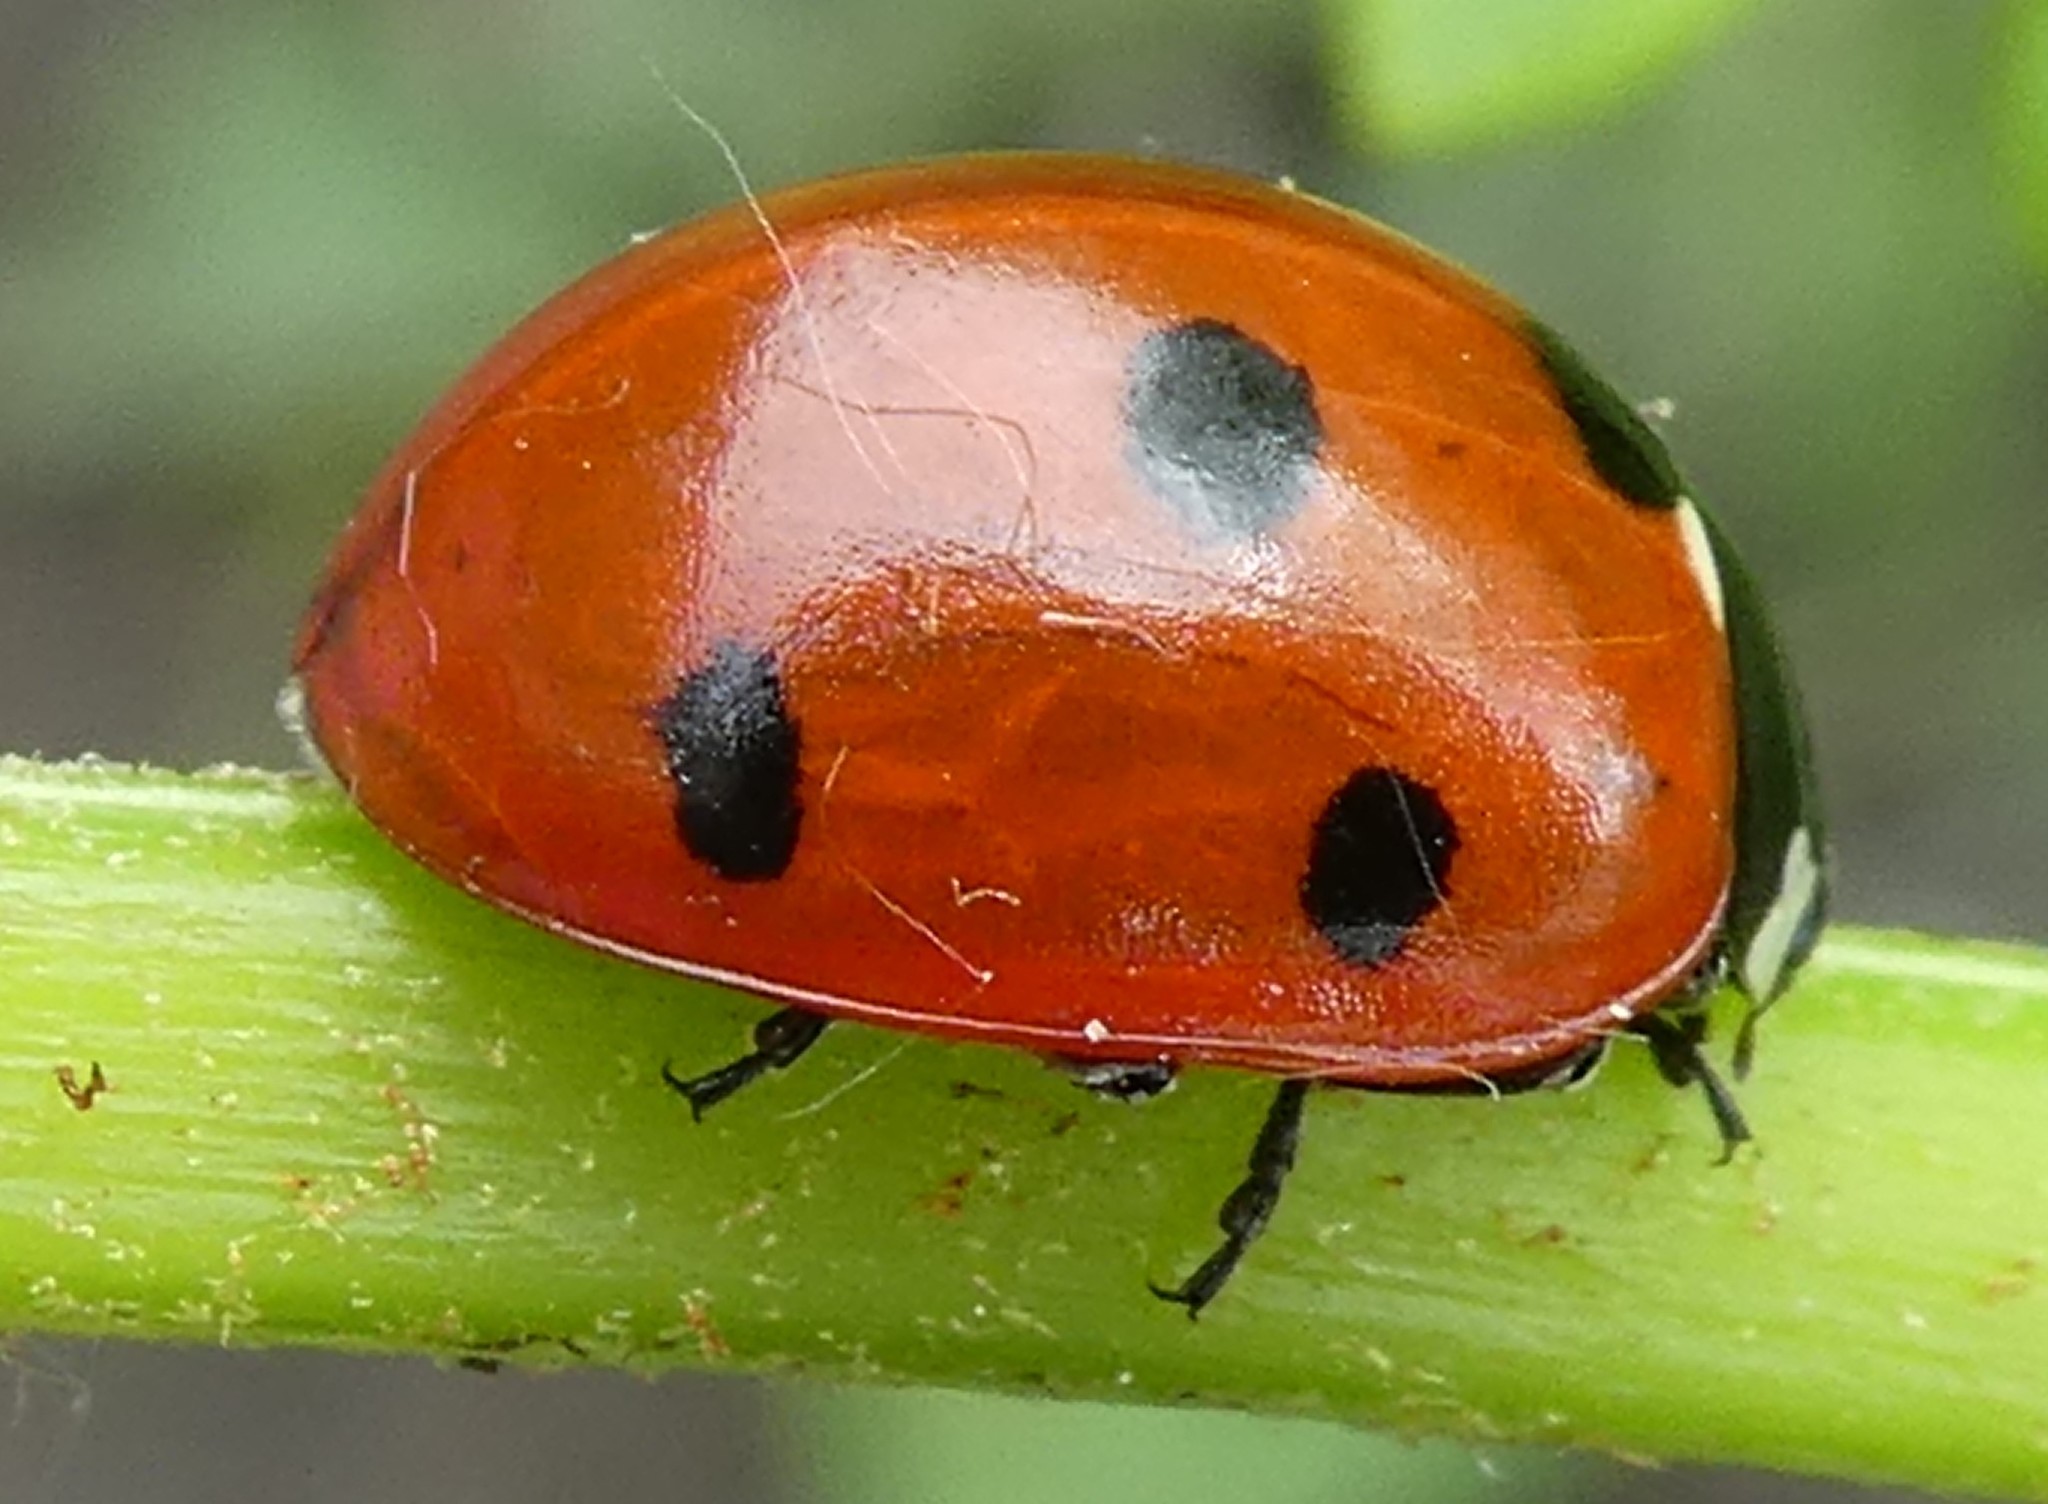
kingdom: Animalia
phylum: Arthropoda
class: Insecta
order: Coleoptera
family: Coccinellidae
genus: Coccinella
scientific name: Coccinella septempunctata
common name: Sevenspotted lady beetle
